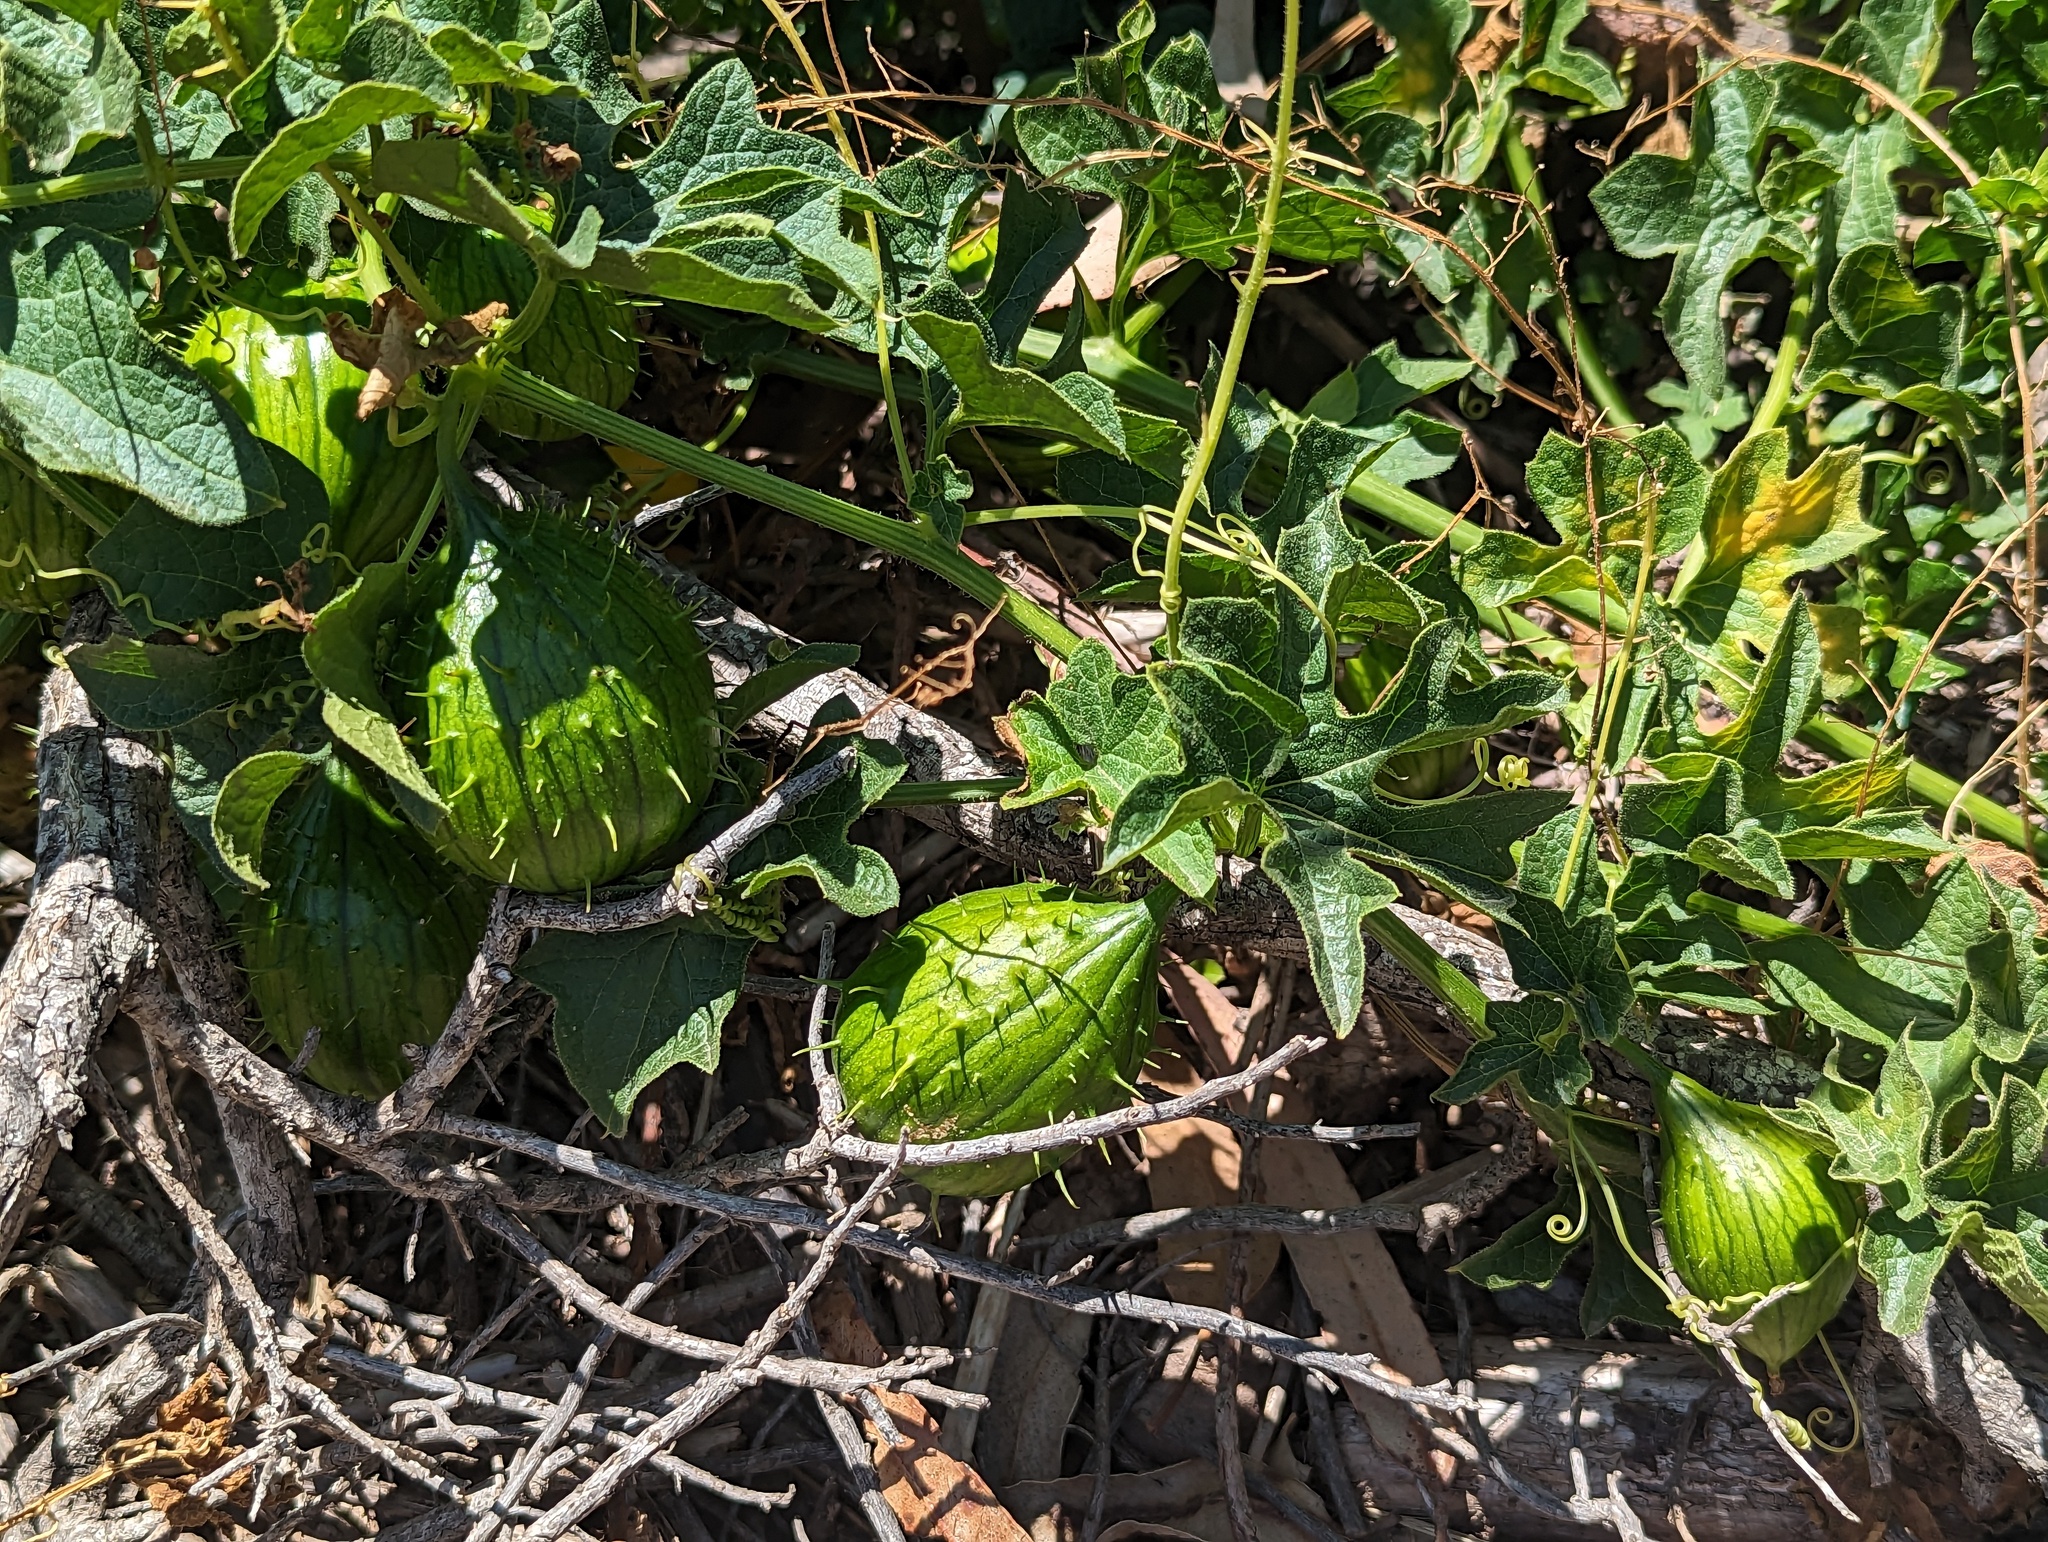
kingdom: Plantae
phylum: Tracheophyta
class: Magnoliopsida
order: Cucurbitales
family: Cucurbitaceae
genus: Marah
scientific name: Marah oregana
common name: Coastal manroot
